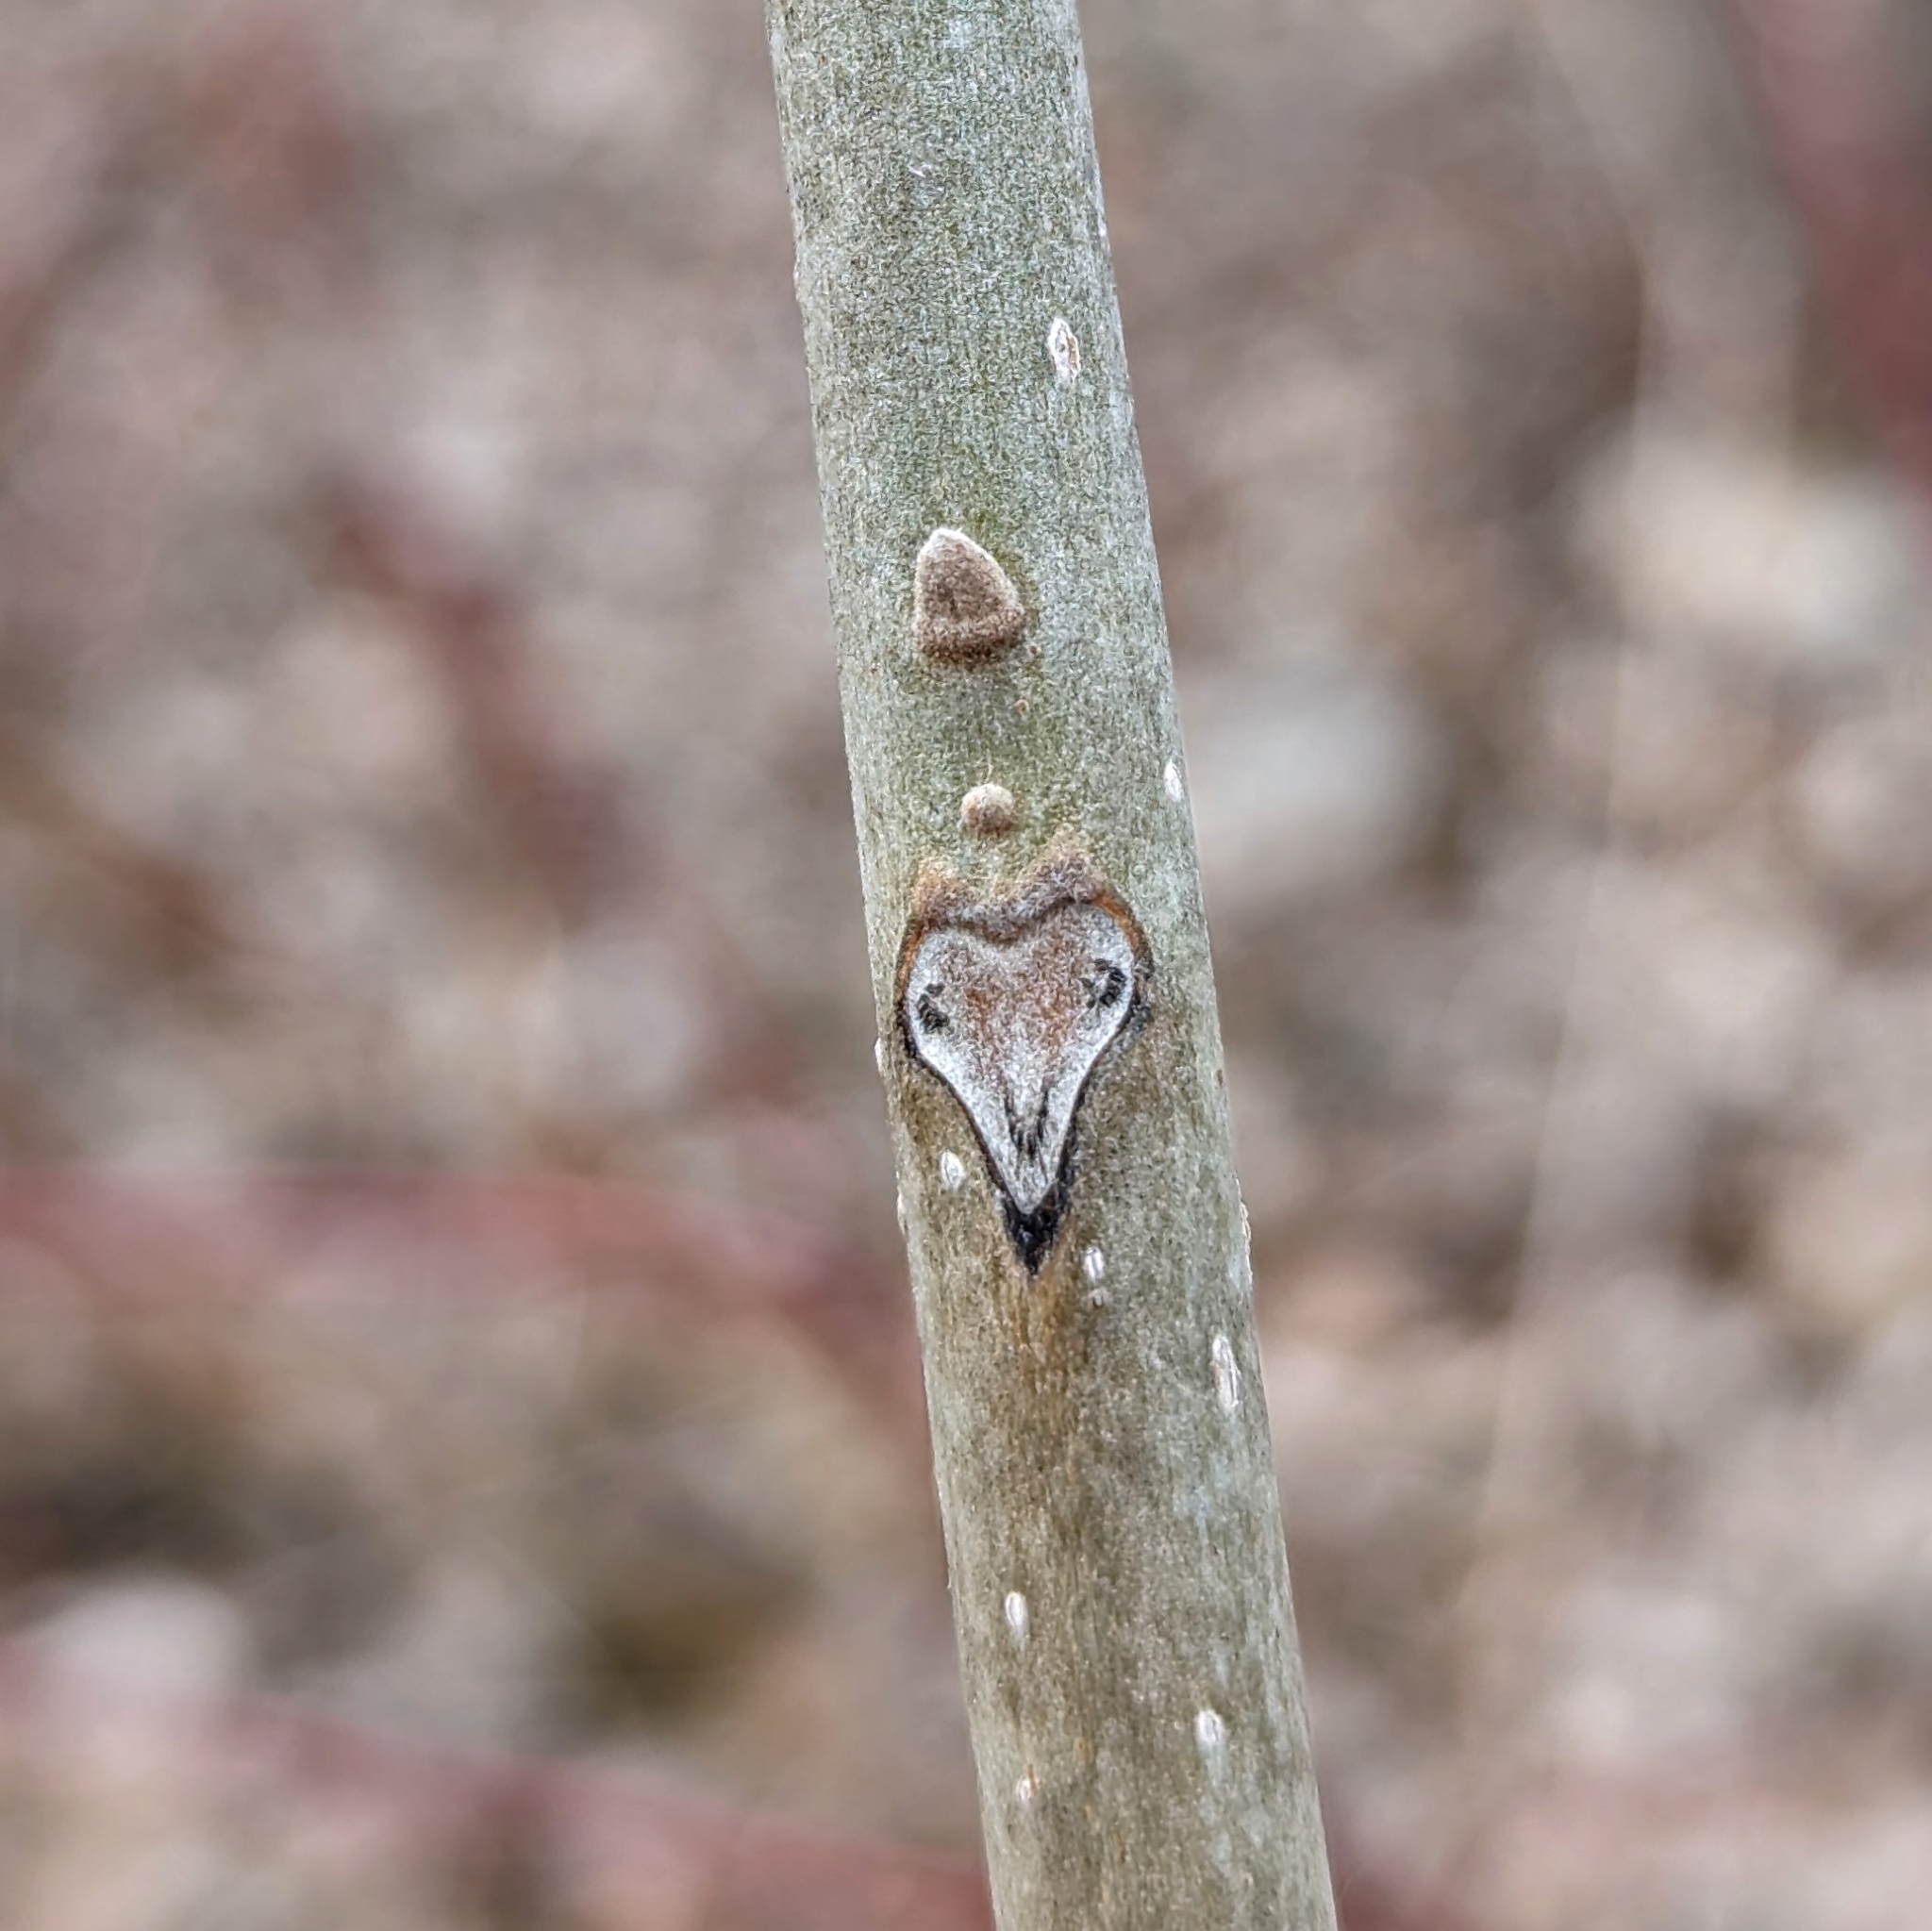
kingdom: Plantae
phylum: Tracheophyta
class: Magnoliopsida
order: Fagales
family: Juglandaceae
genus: Juglans
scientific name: Juglans cinerea
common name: Butternut
